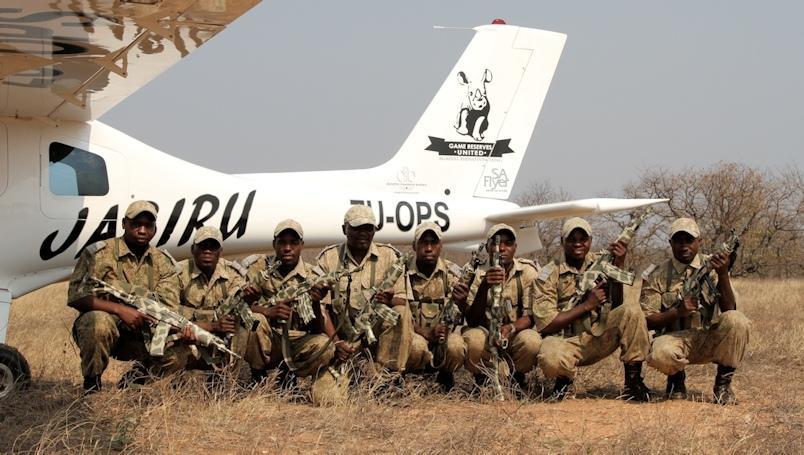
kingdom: Animalia
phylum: Chordata
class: Mammalia
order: Perissodactyla
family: Rhinocerotidae
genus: Ceratotherium
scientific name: Ceratotherium simum
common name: White rhinoceros
